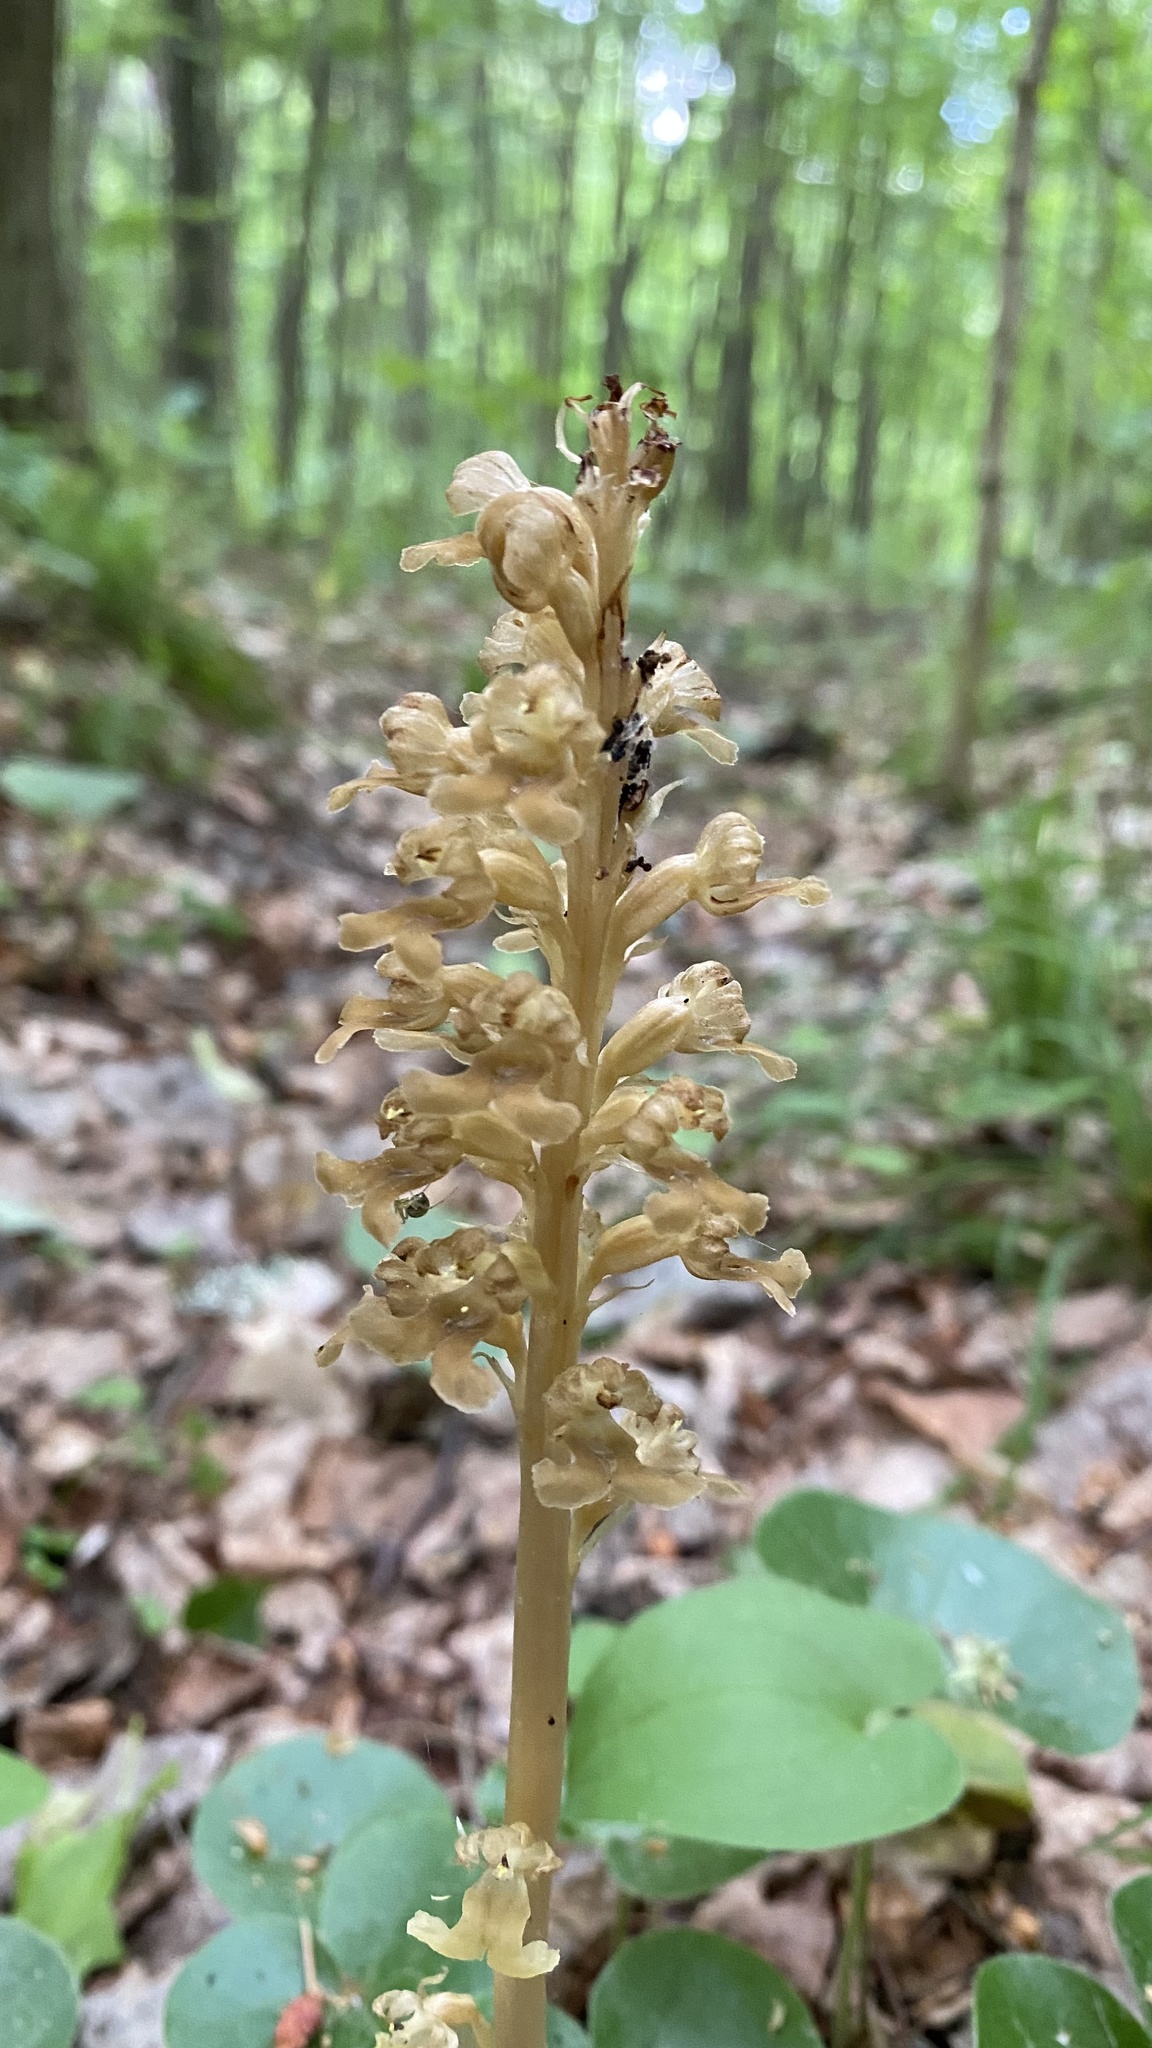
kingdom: Plantae
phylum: Tracheophyta
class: Liliopsida
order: Asparagales
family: Orchidaceae
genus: Neottia
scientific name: Neottia nidus-avis
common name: Bird's-nest orchid
